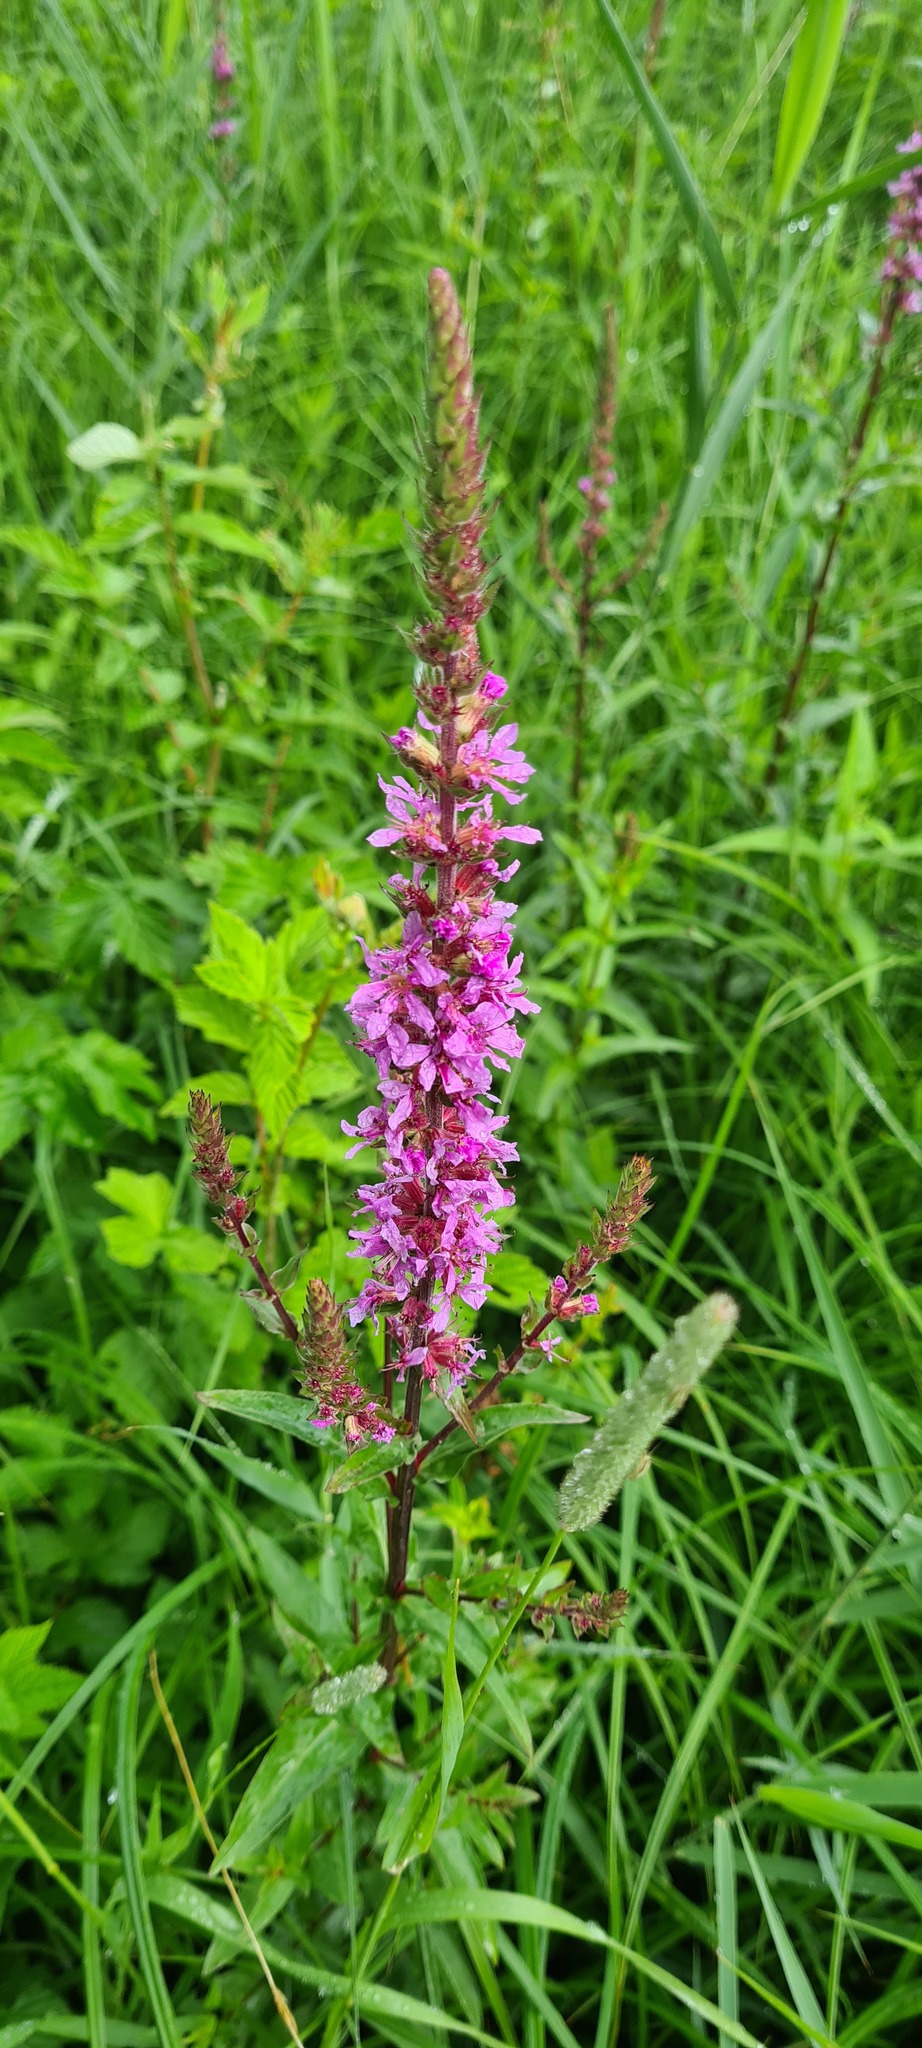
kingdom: Plantae
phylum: Tracheophyta
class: Magnoliopsida
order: Myrtales
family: Lythraceae
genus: Lythrum
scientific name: Lythrum salicaria
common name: Purple loosestrife
